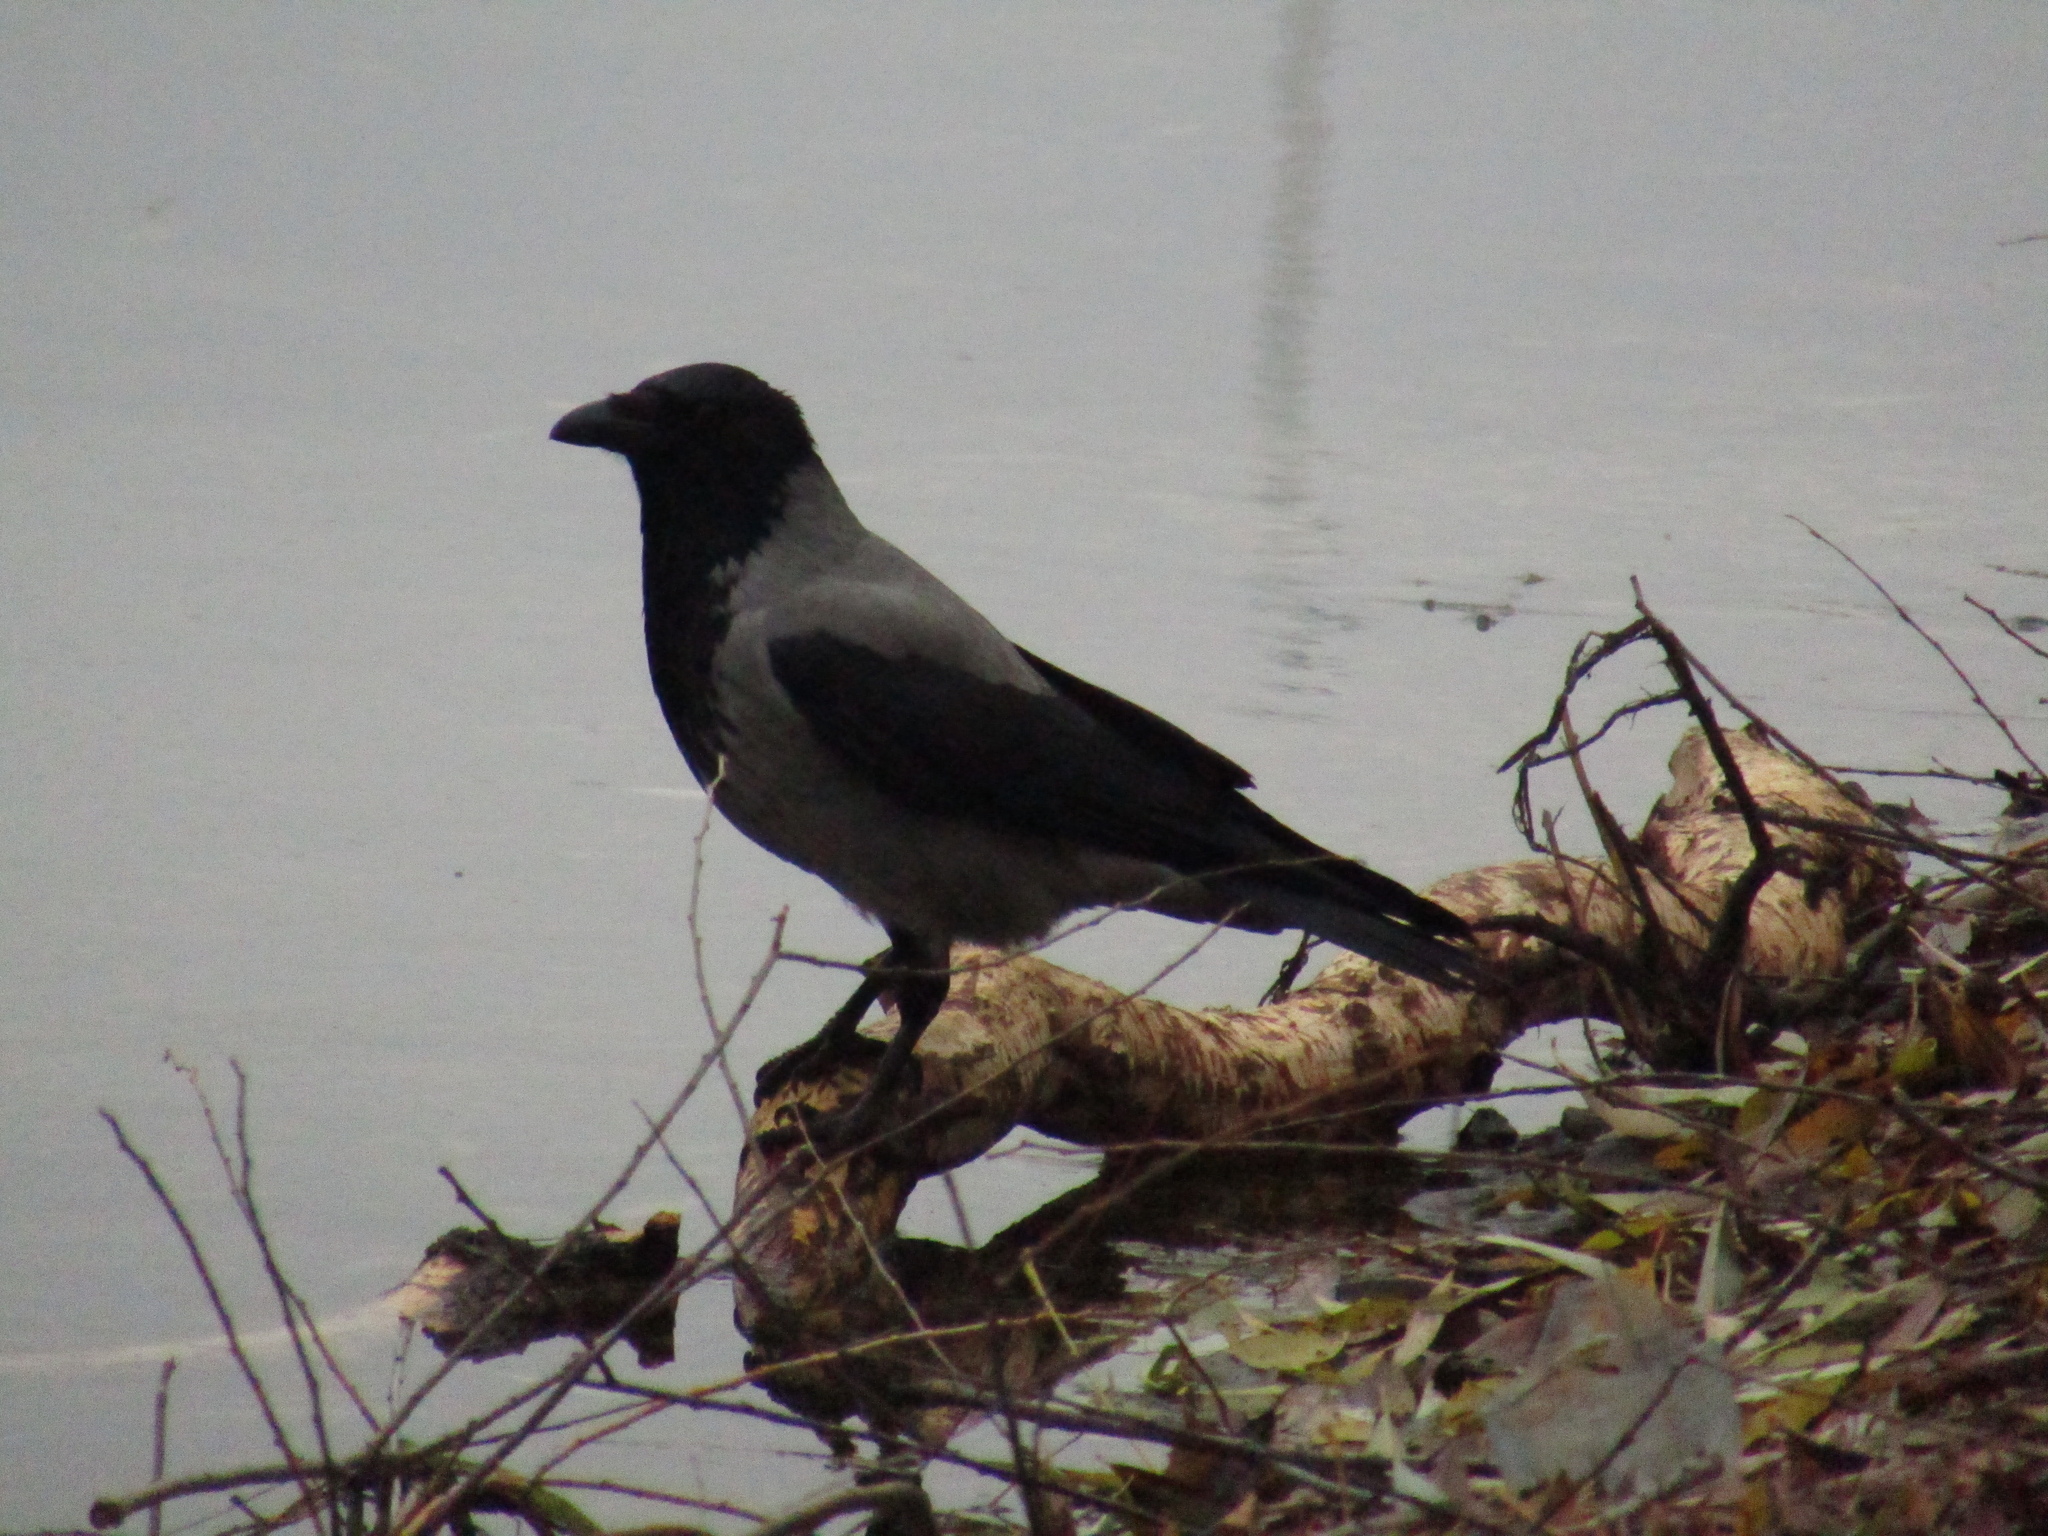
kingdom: Animalia
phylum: Chordata
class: Aves
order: Passeriformes
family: Corvidae
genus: Corvus
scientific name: Corvus cornix
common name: Hooded crow
